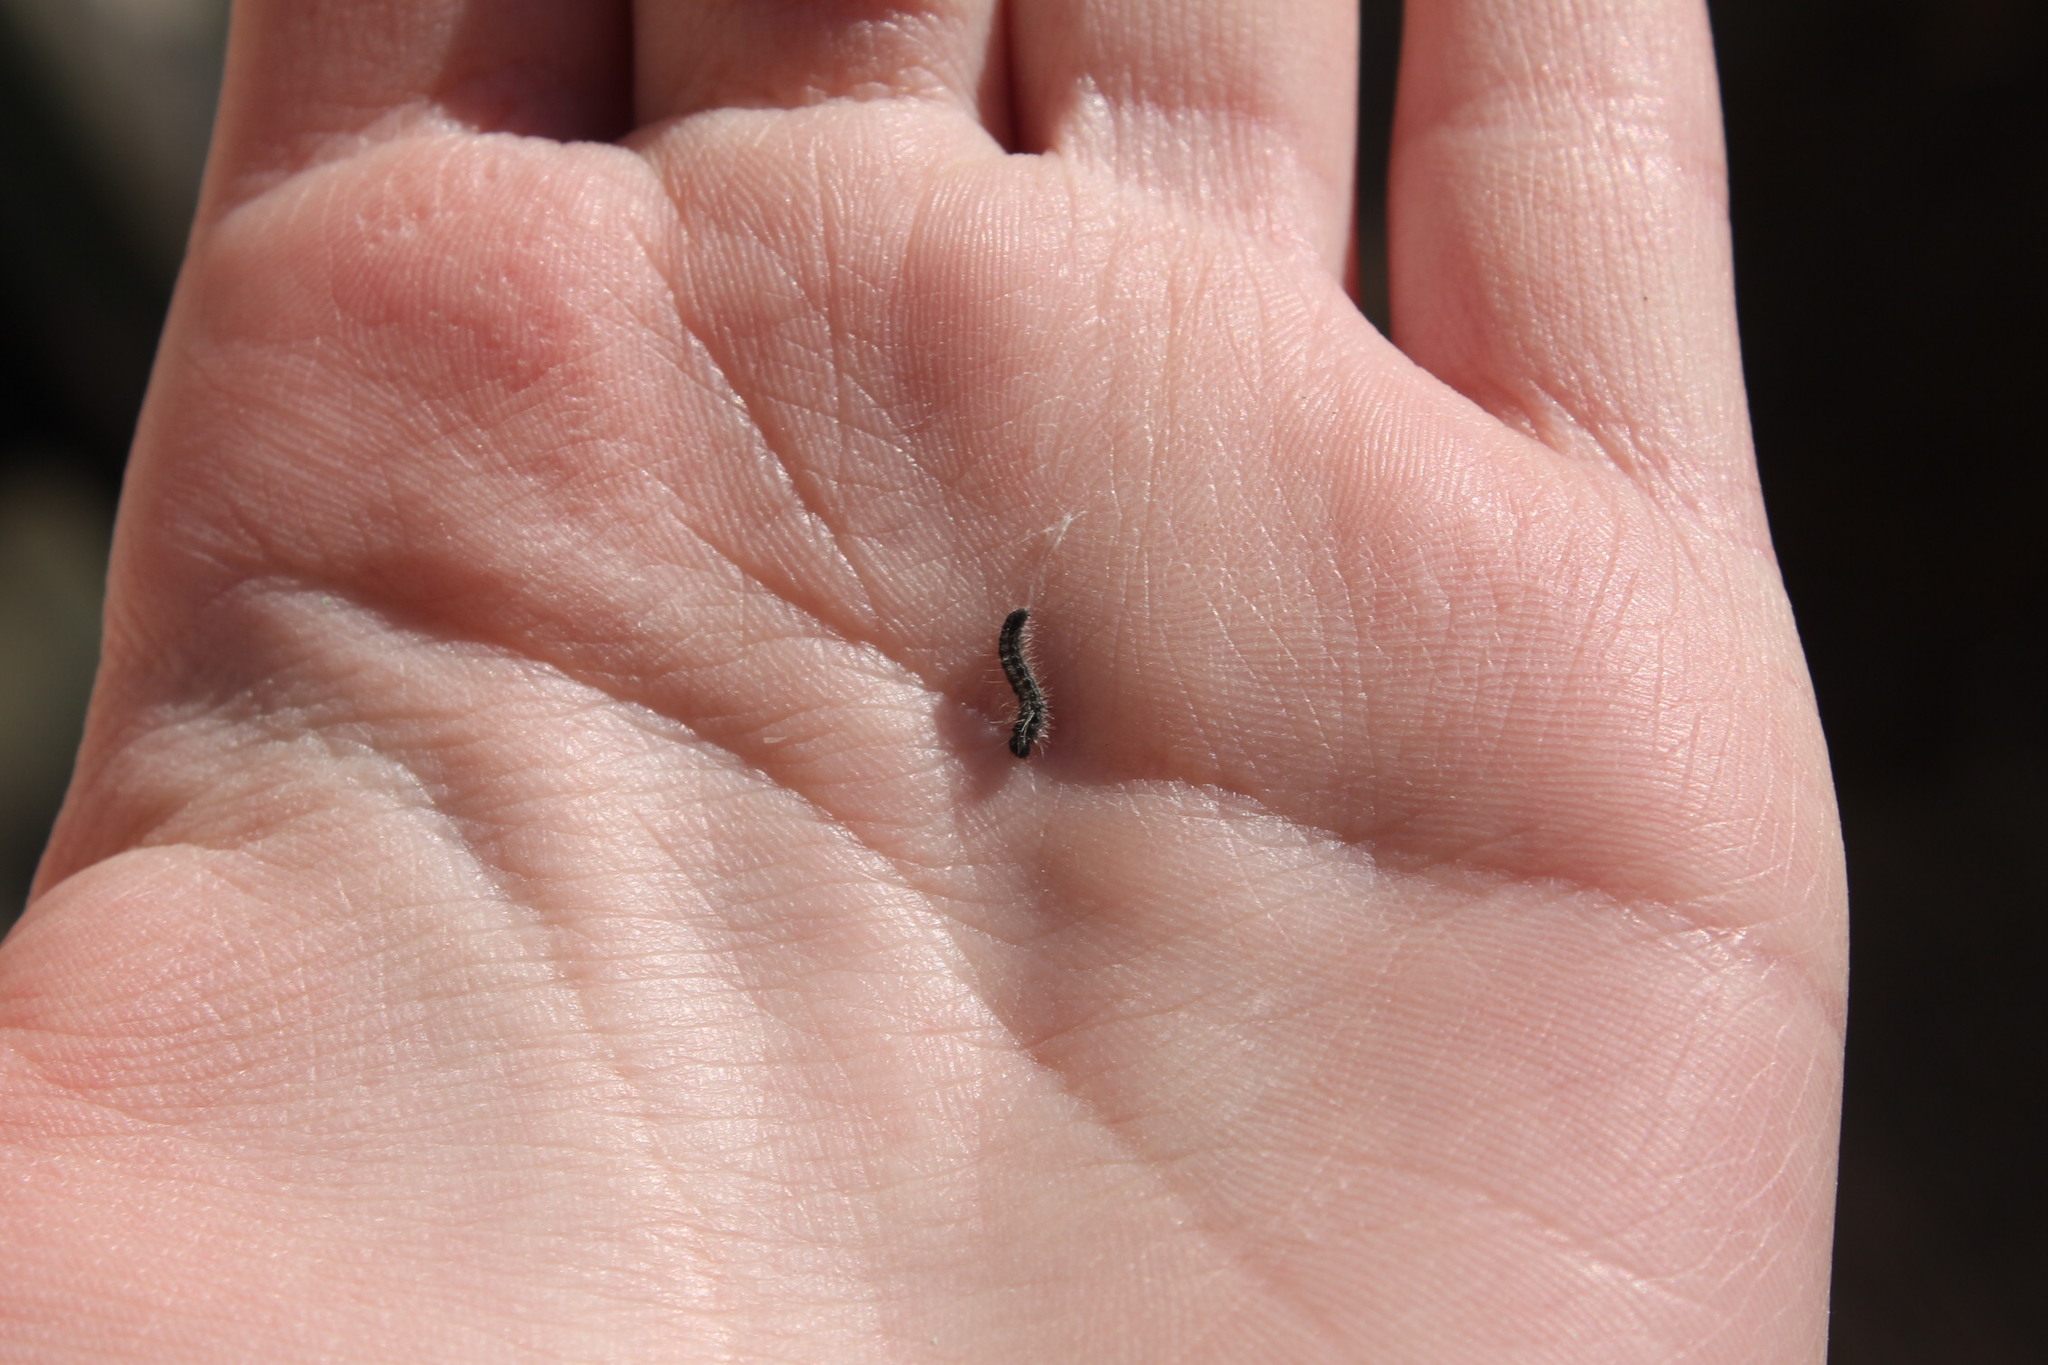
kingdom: Animalia
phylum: Arthropoda
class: Insecta
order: Lepidoptera
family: Lasiocampidae
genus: Malacosoma
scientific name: Malacosoma americana
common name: Eastern tent caterpillar moth
